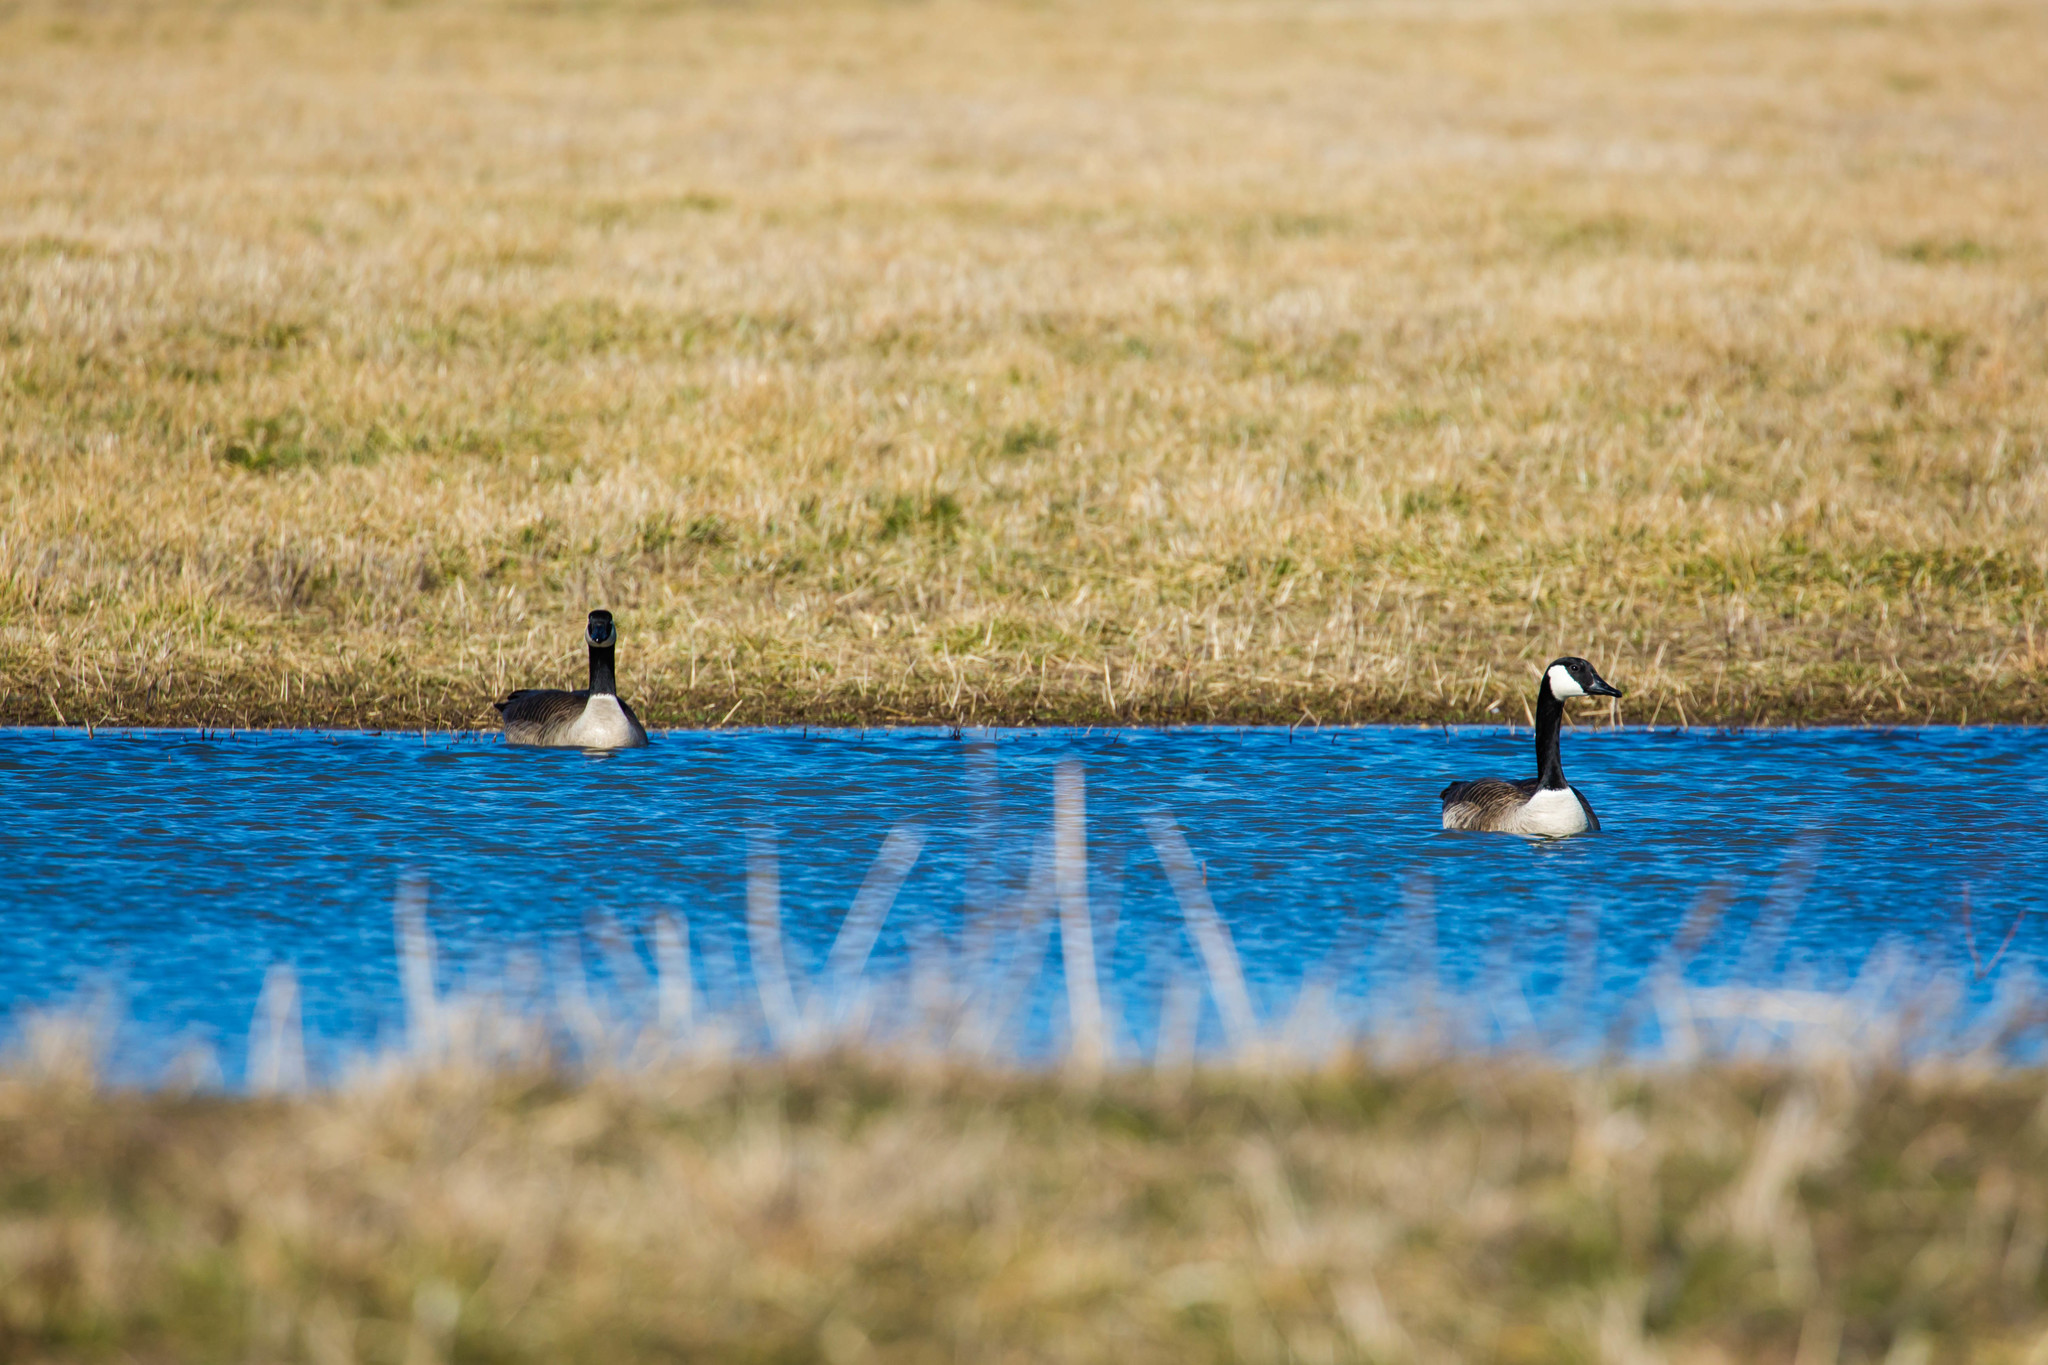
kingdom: Animalia
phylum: Chordata
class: Aves
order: Anseriformes
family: Anatidae
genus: Branta
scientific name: Branta canadensis
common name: Canada goose
